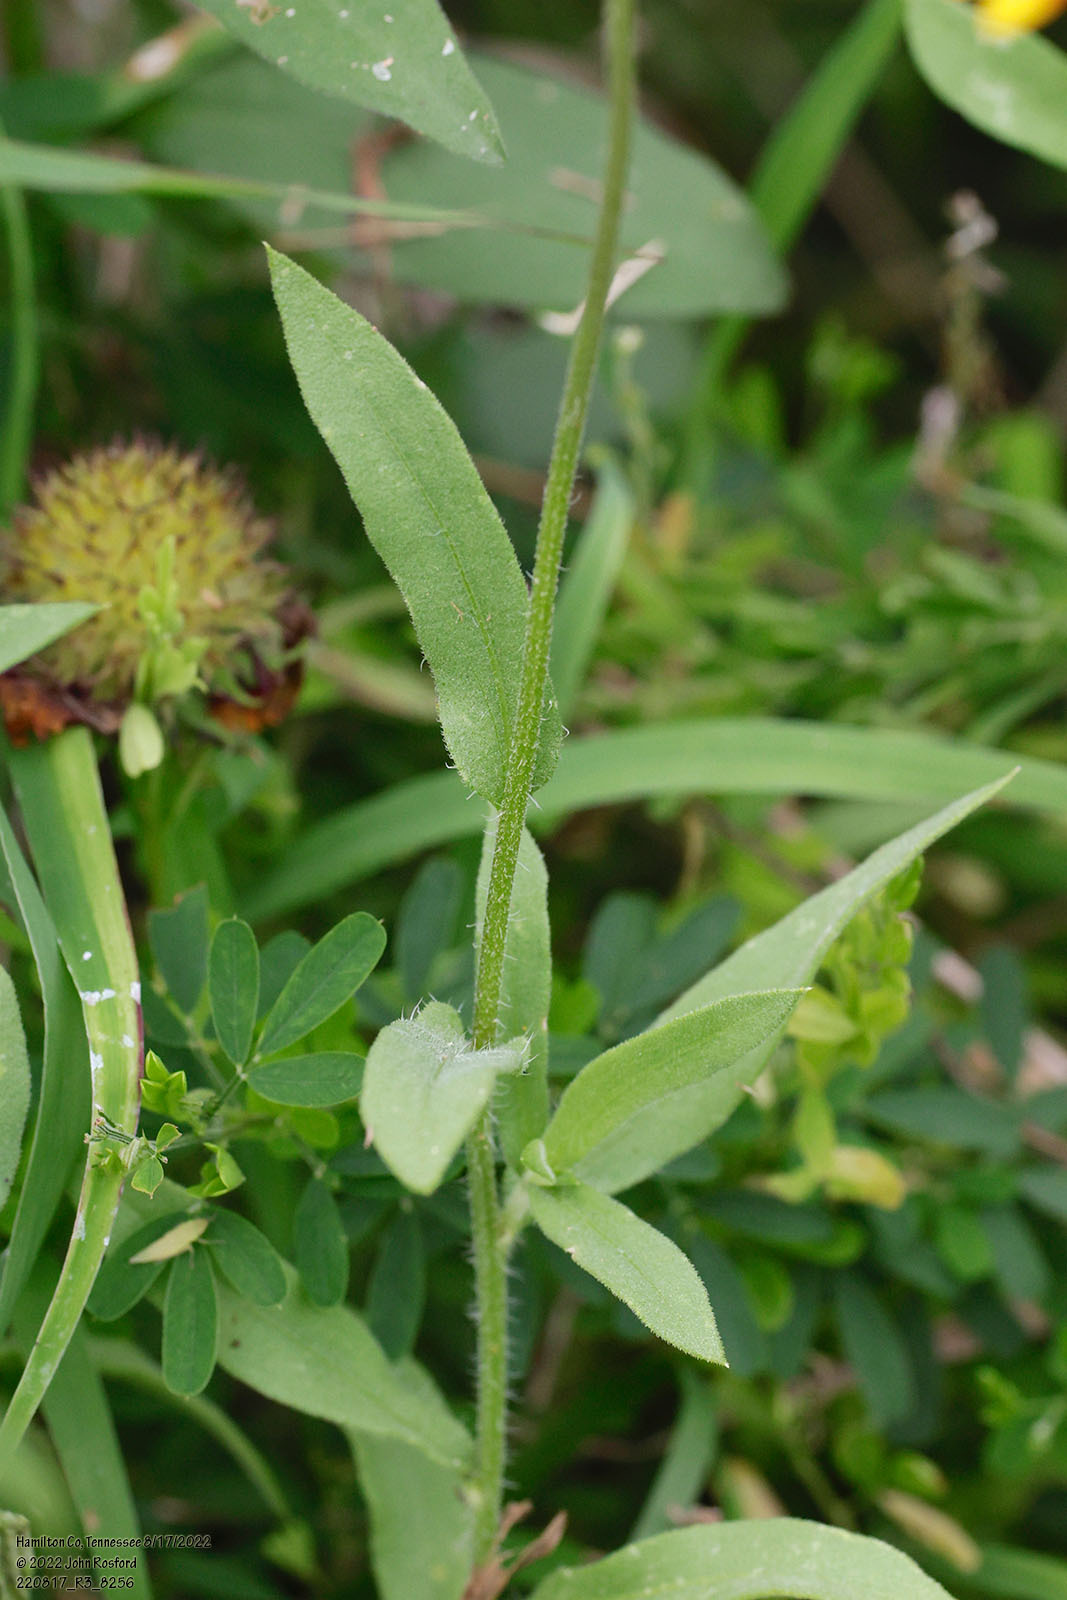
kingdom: Plantae
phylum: Tracheophyta
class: Magnoliopsida
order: Asterales
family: Asteraceae
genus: Gaillardia
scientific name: Gaillardia pulchella
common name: Firewheel
